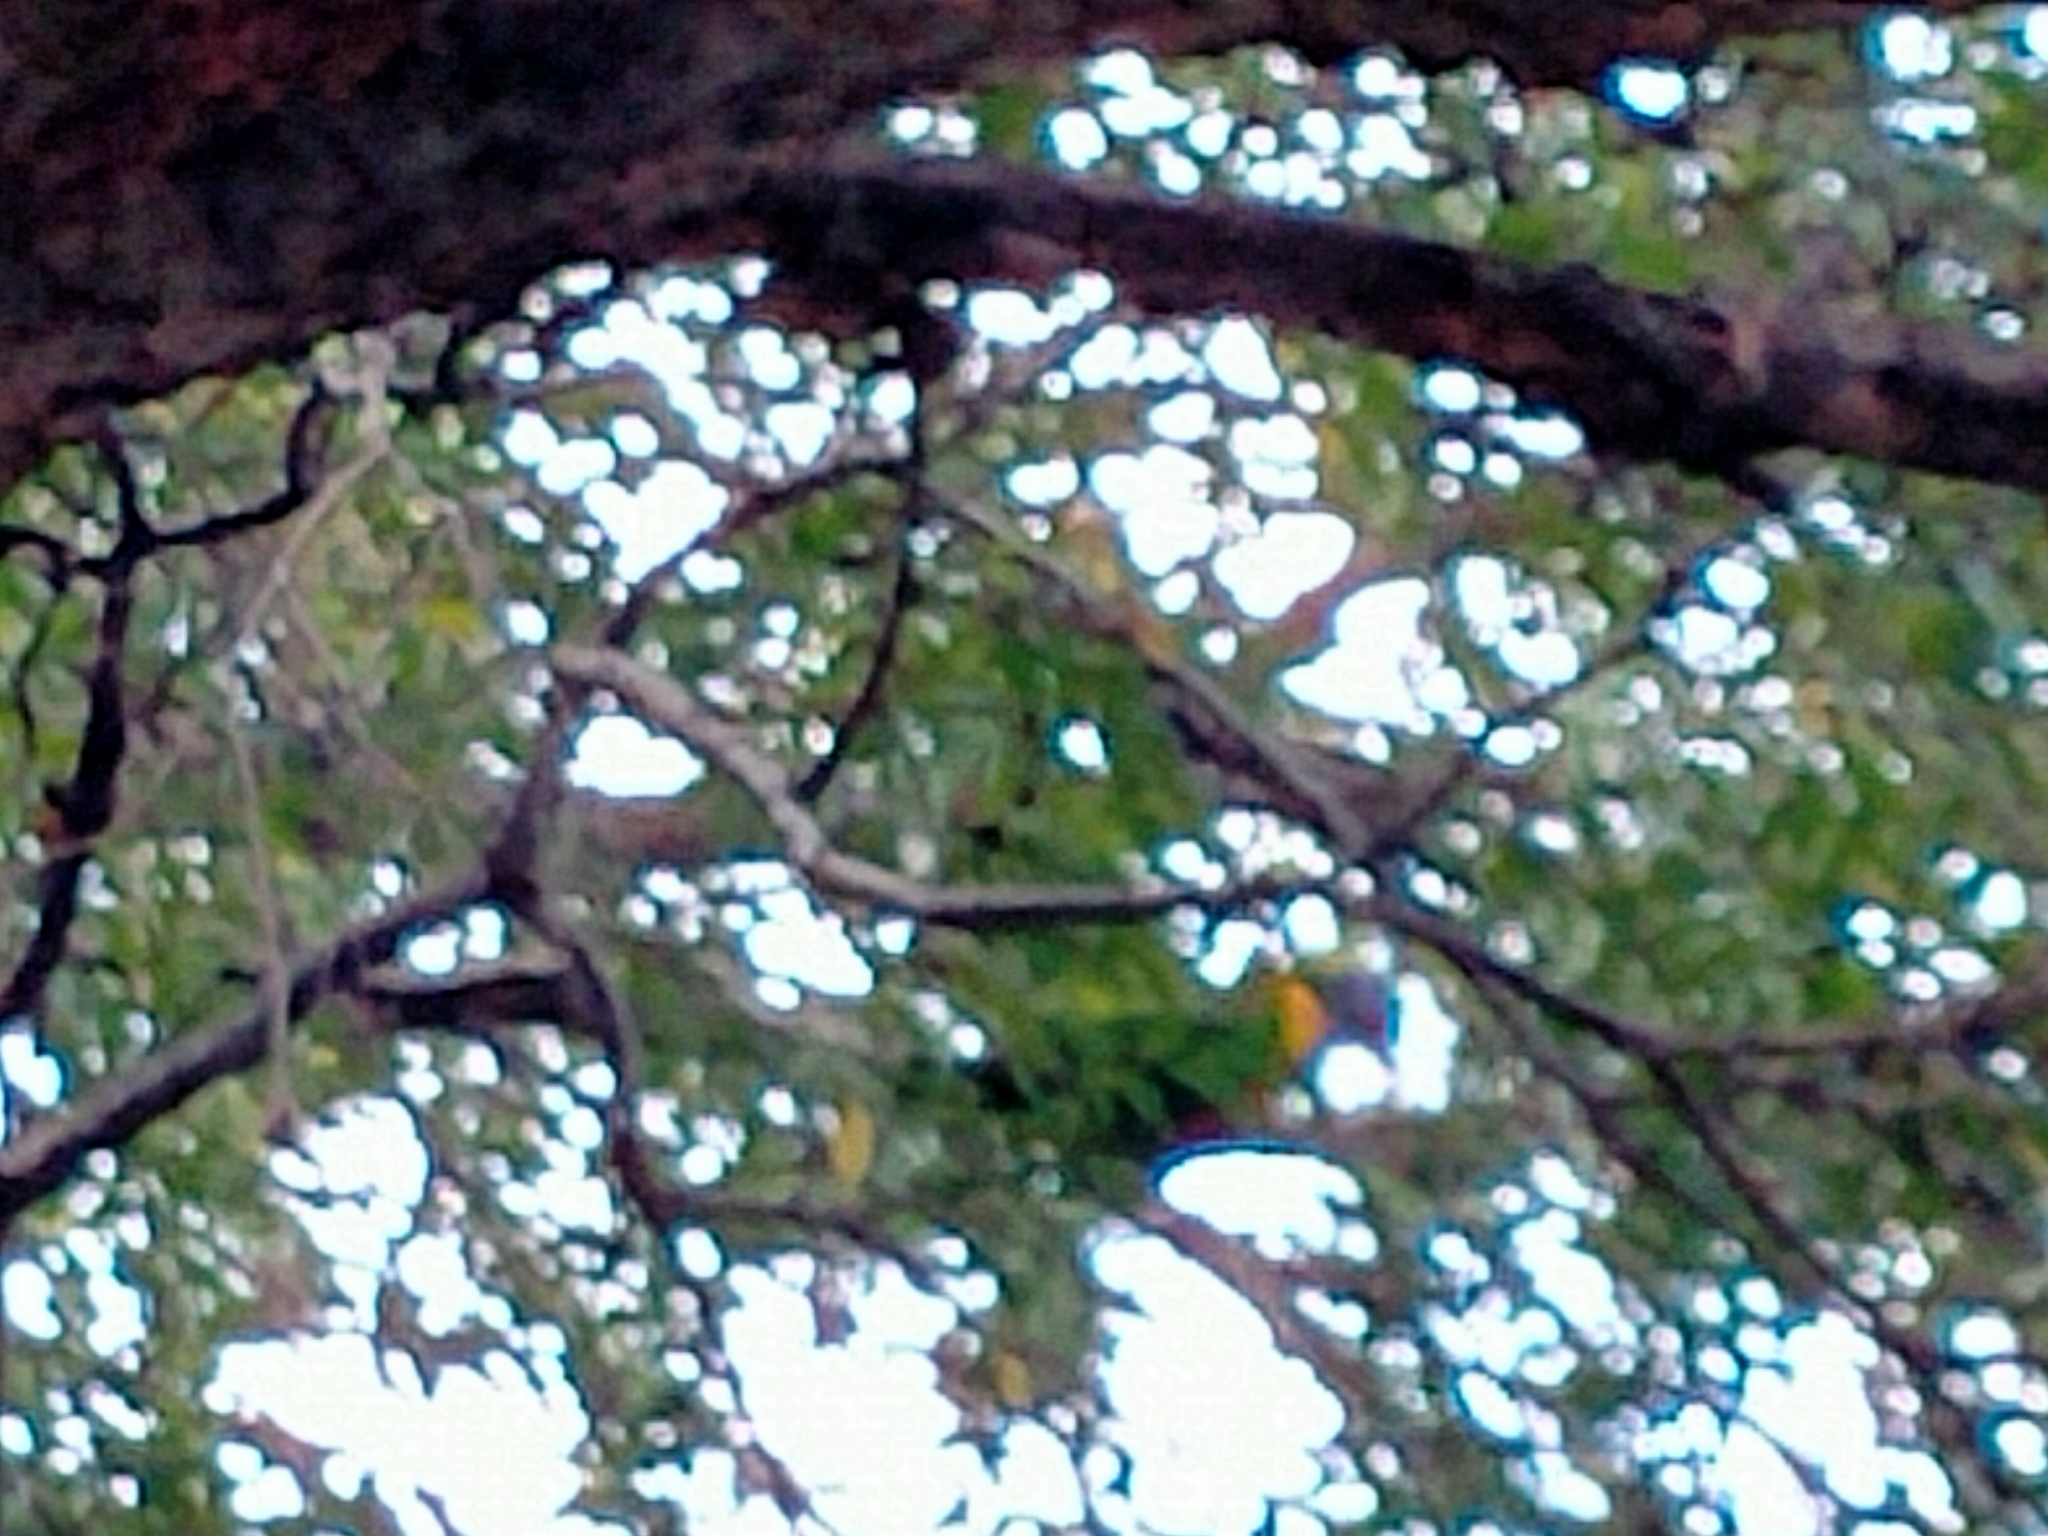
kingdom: Animalia
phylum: Chordata
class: Aves
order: Psittaciformes
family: Psittacidae
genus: Trichoglossus
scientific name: Trichoglossus haematodus
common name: Coconut lorikeet
